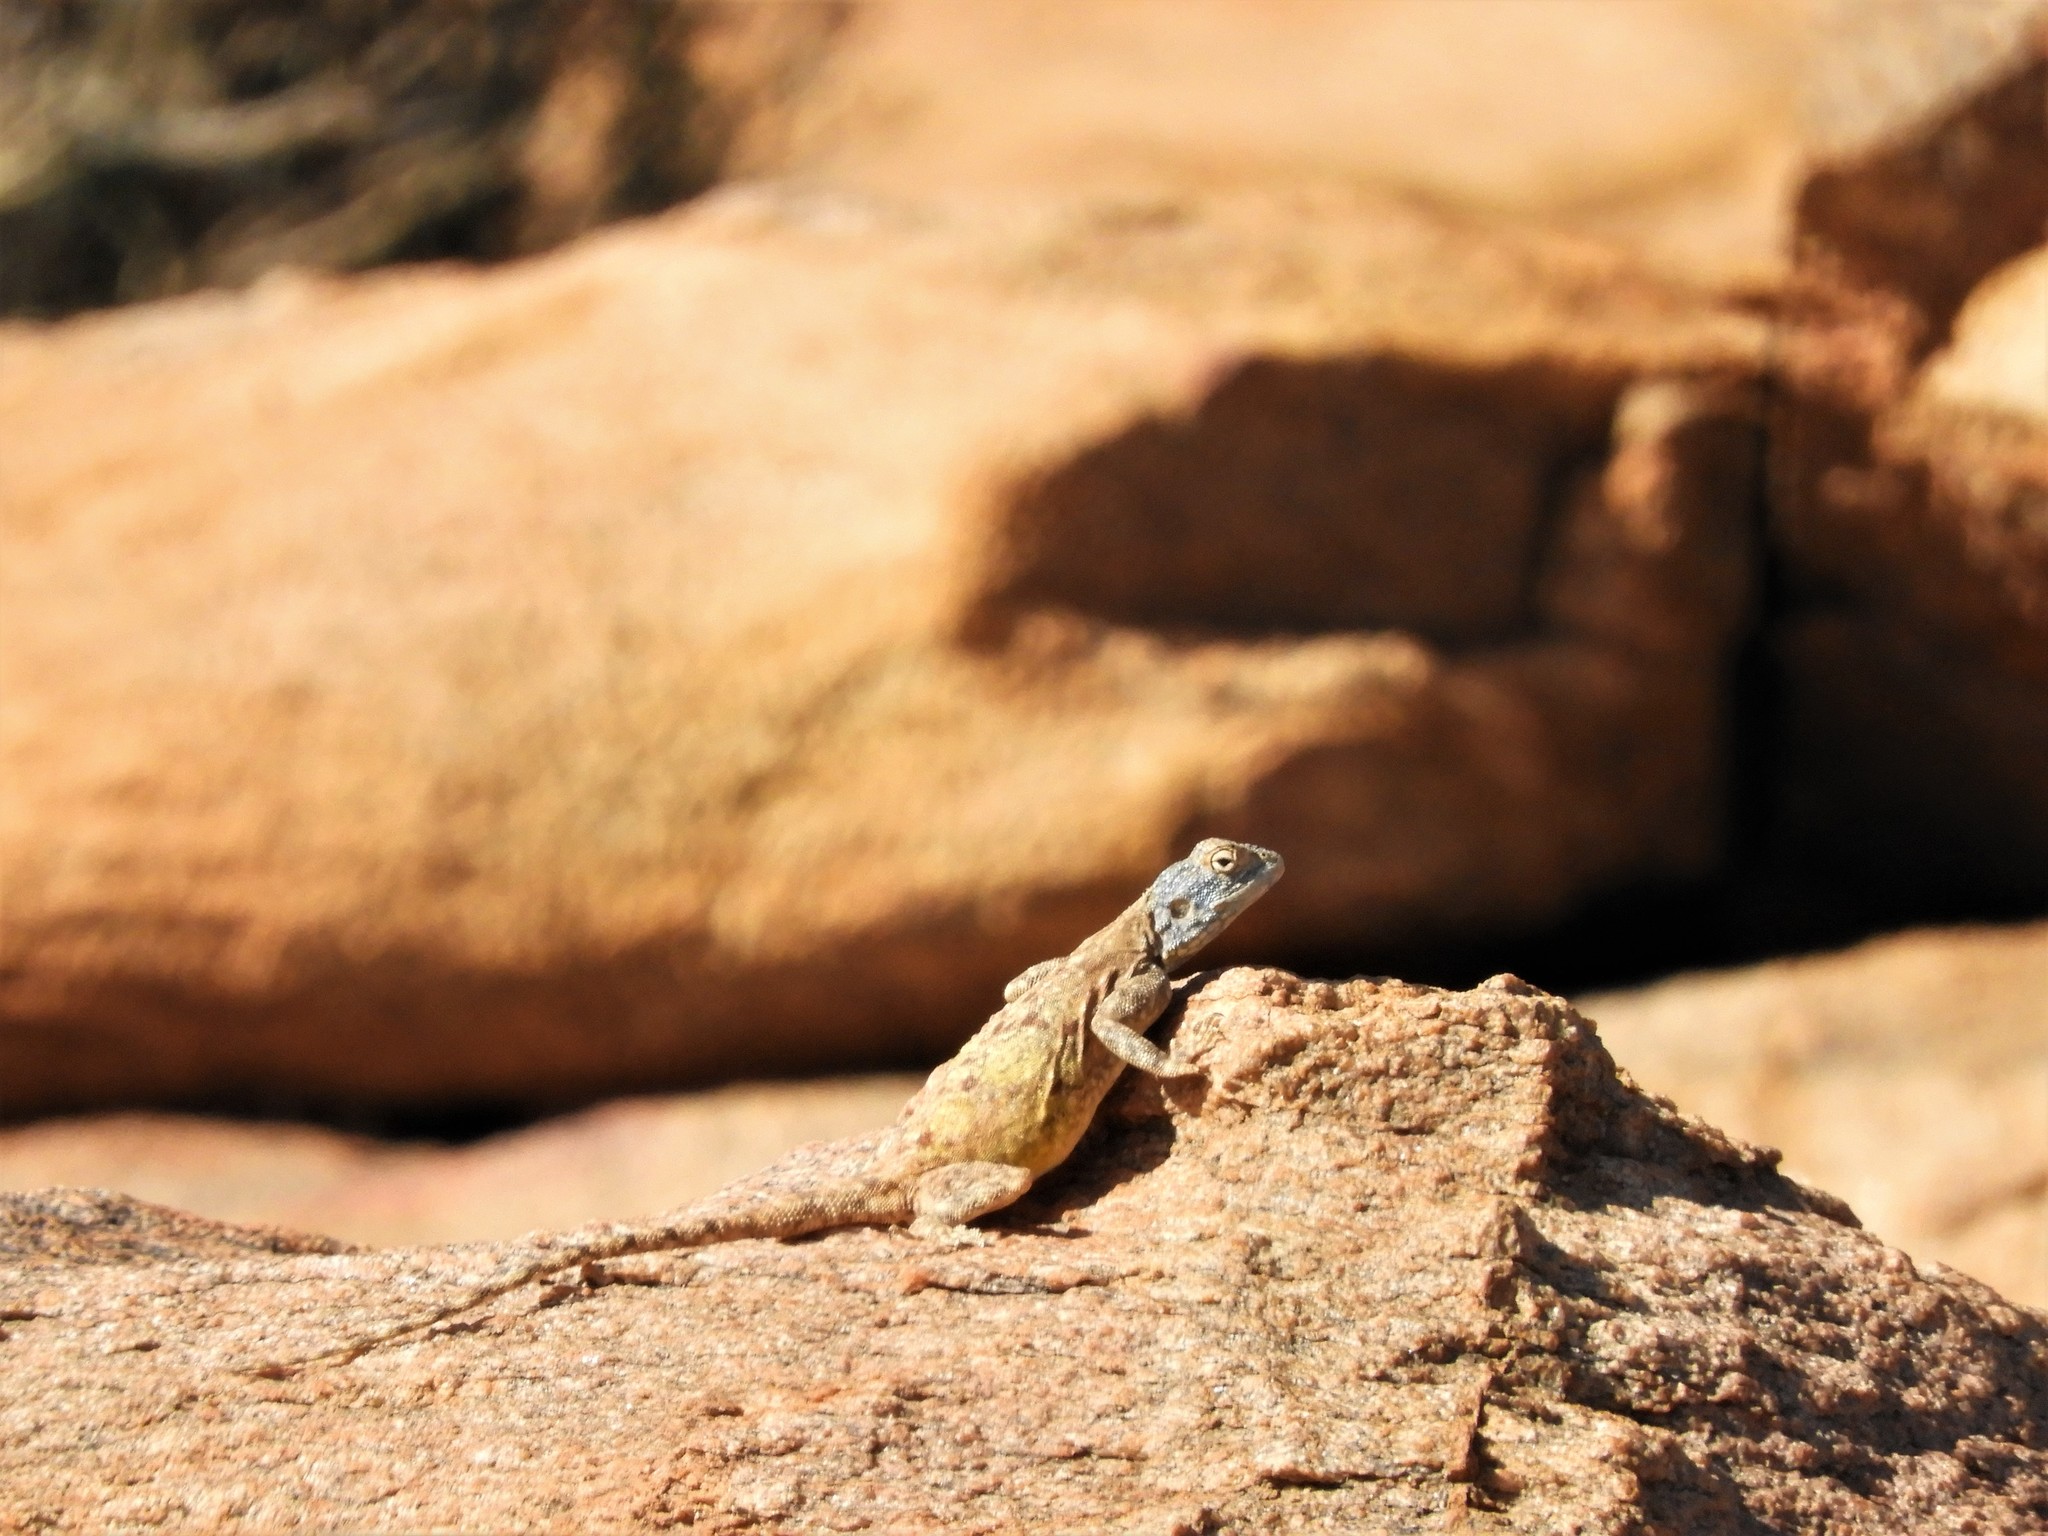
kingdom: Animalia
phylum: Chordata
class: Squamata
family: Agamidae
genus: Agama
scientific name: Agama atra
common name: Southern african rock agama
